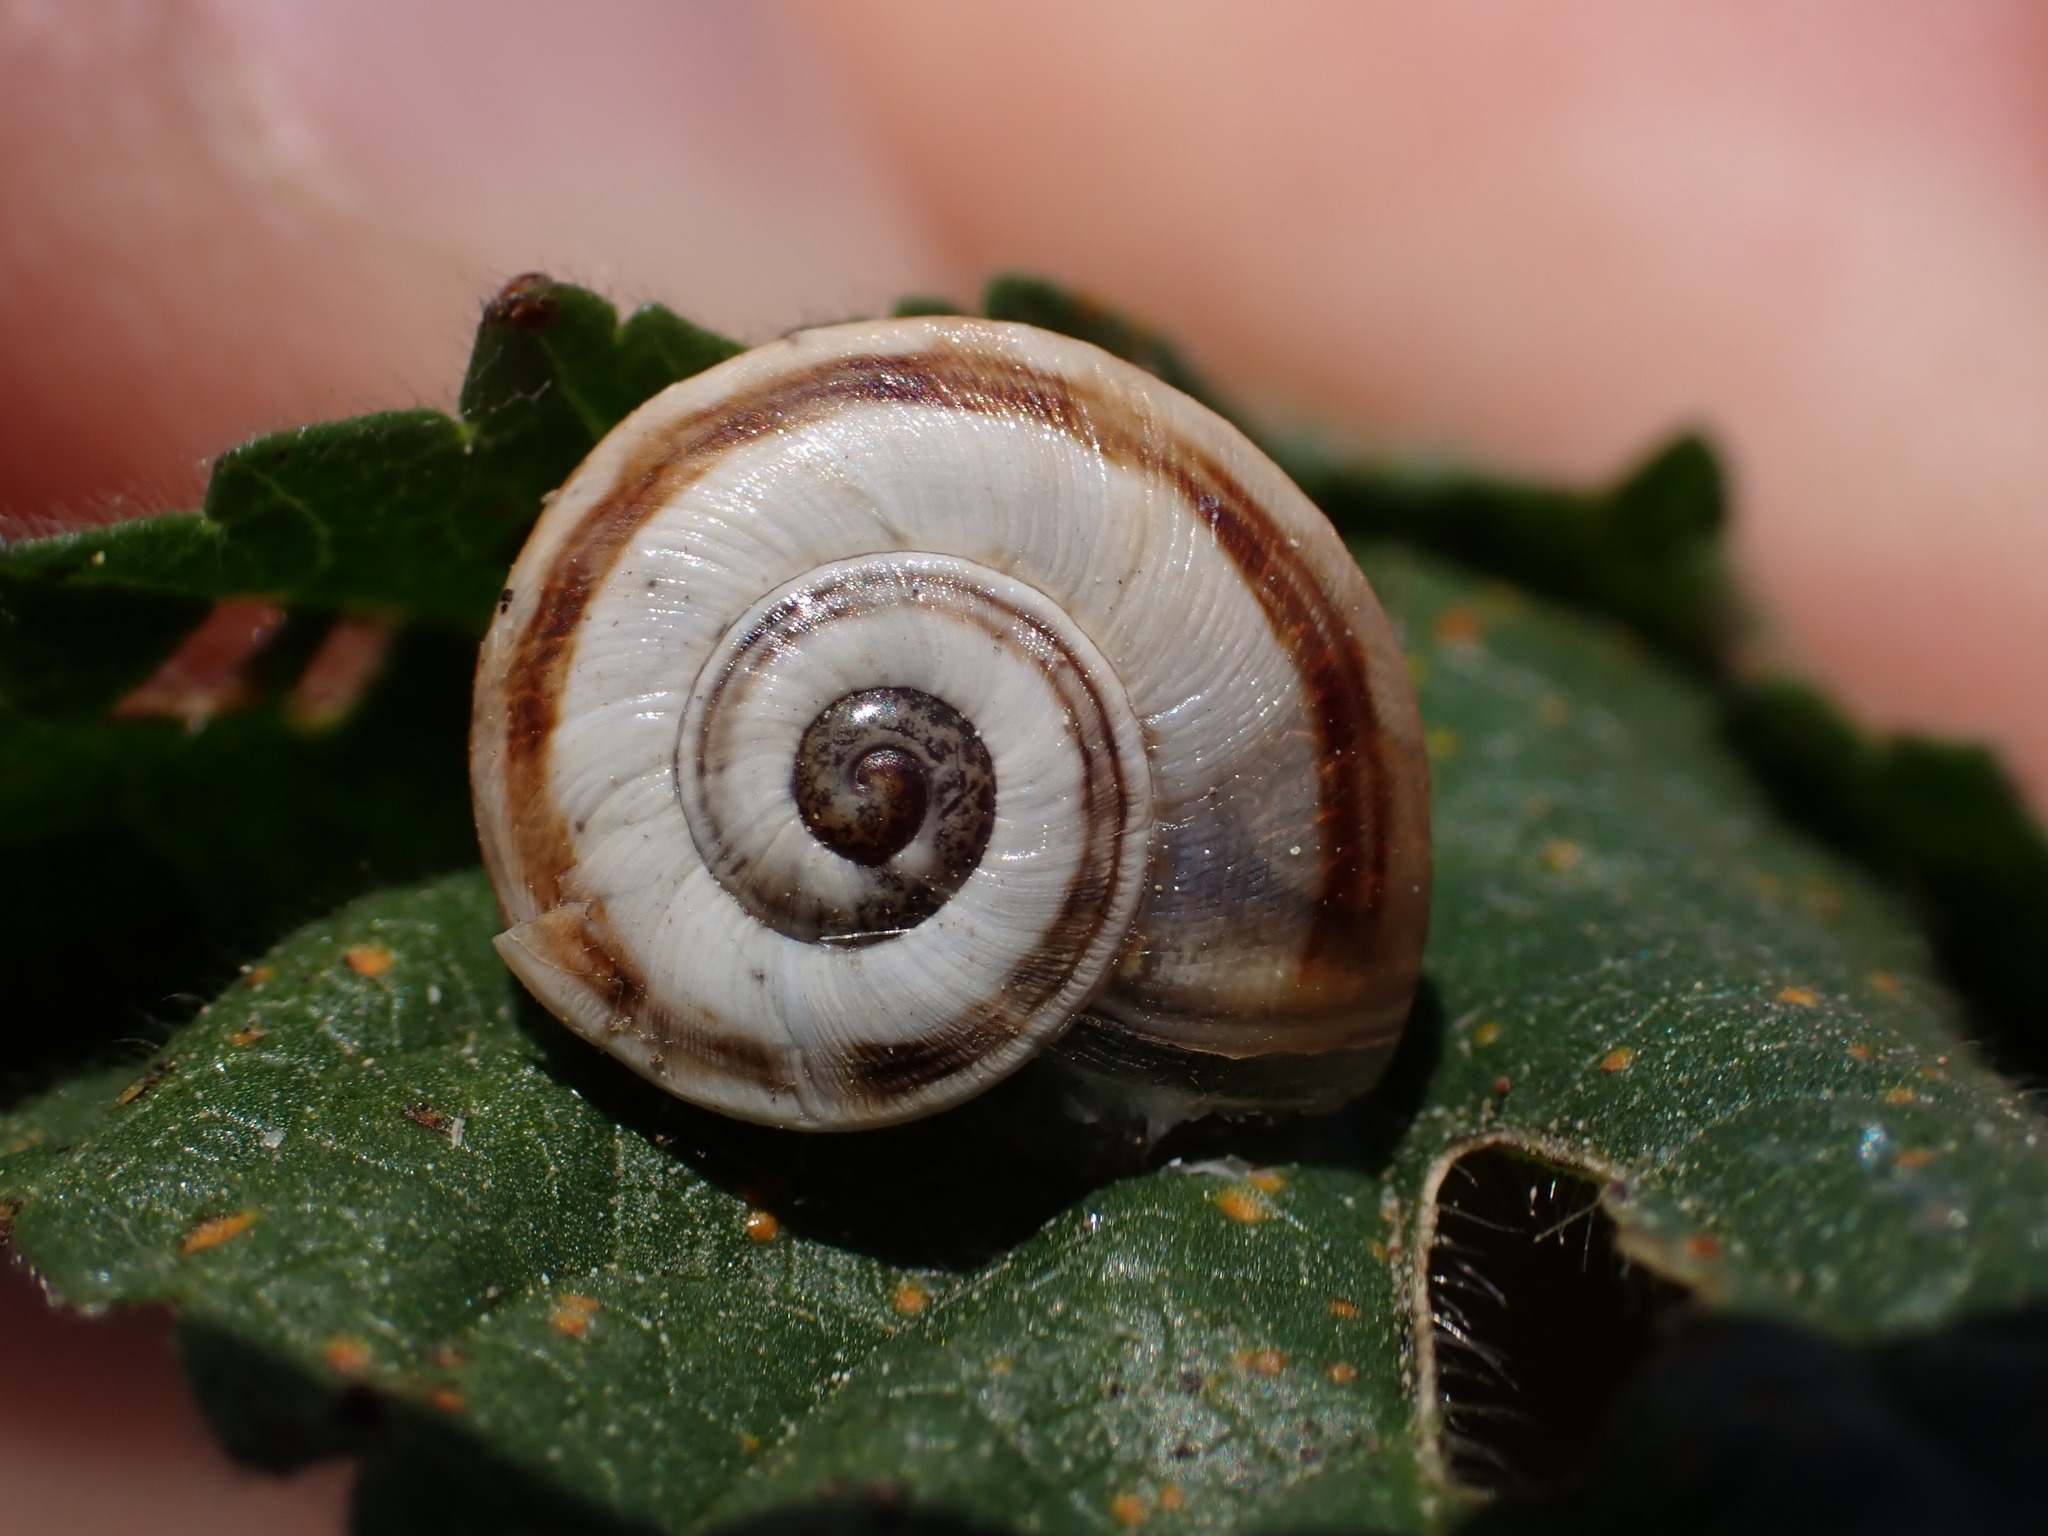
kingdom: Animalia
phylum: Mollusca
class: Gastropoda
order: Stylommatophora
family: Helicidae
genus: Theba
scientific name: Theba pisana
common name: White snail
